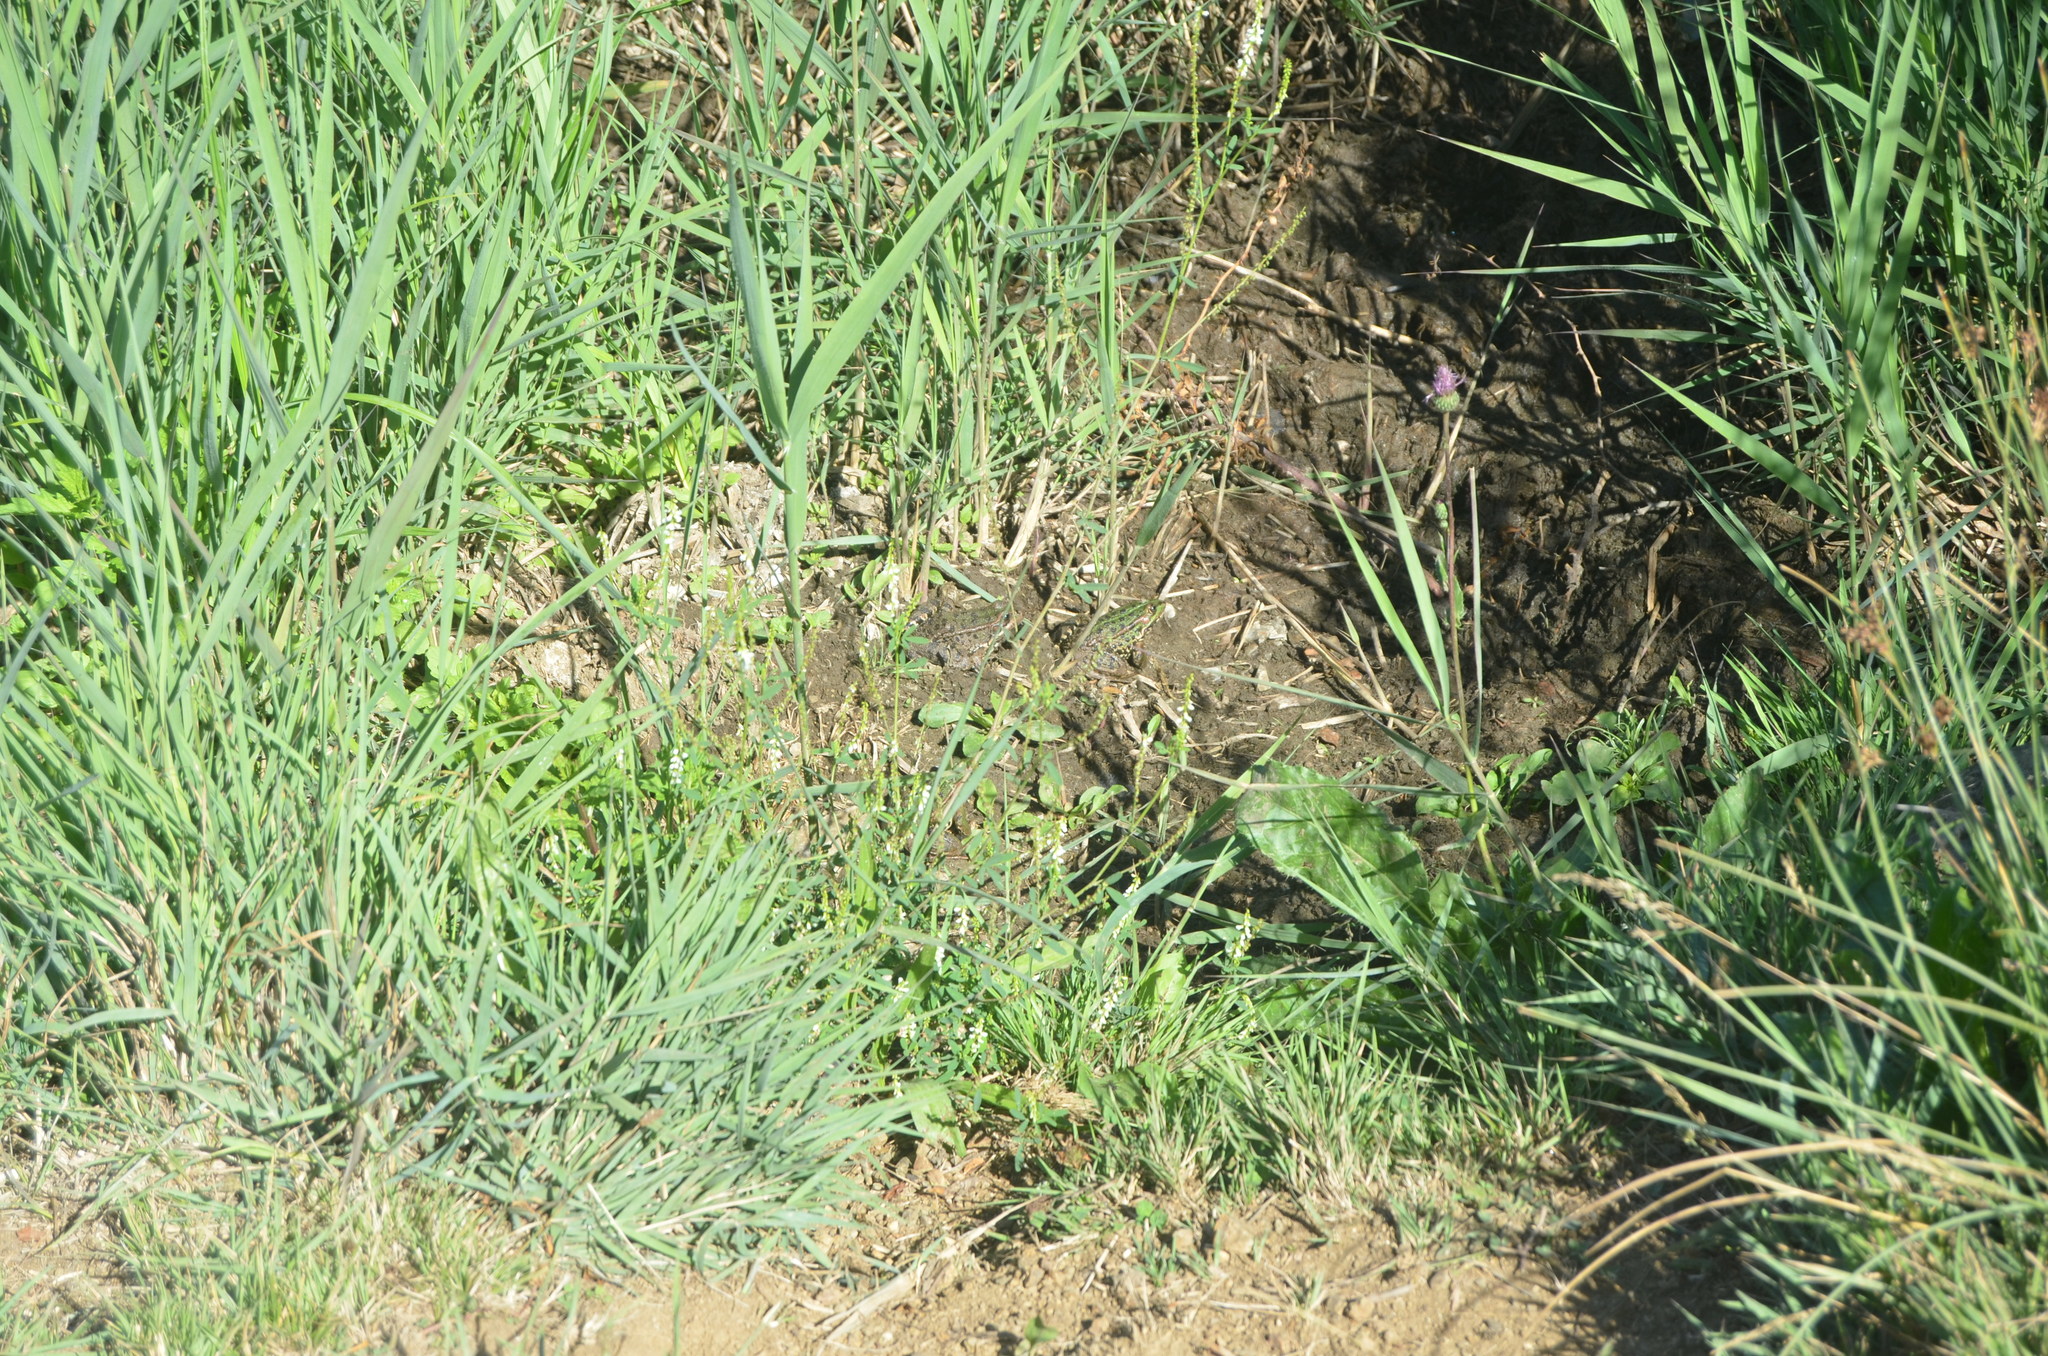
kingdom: Animalia
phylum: Chordata
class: Amphibia
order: Anura
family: Ranidae
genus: Pelophylax
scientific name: Pelophylax perezi
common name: Perez's frog
